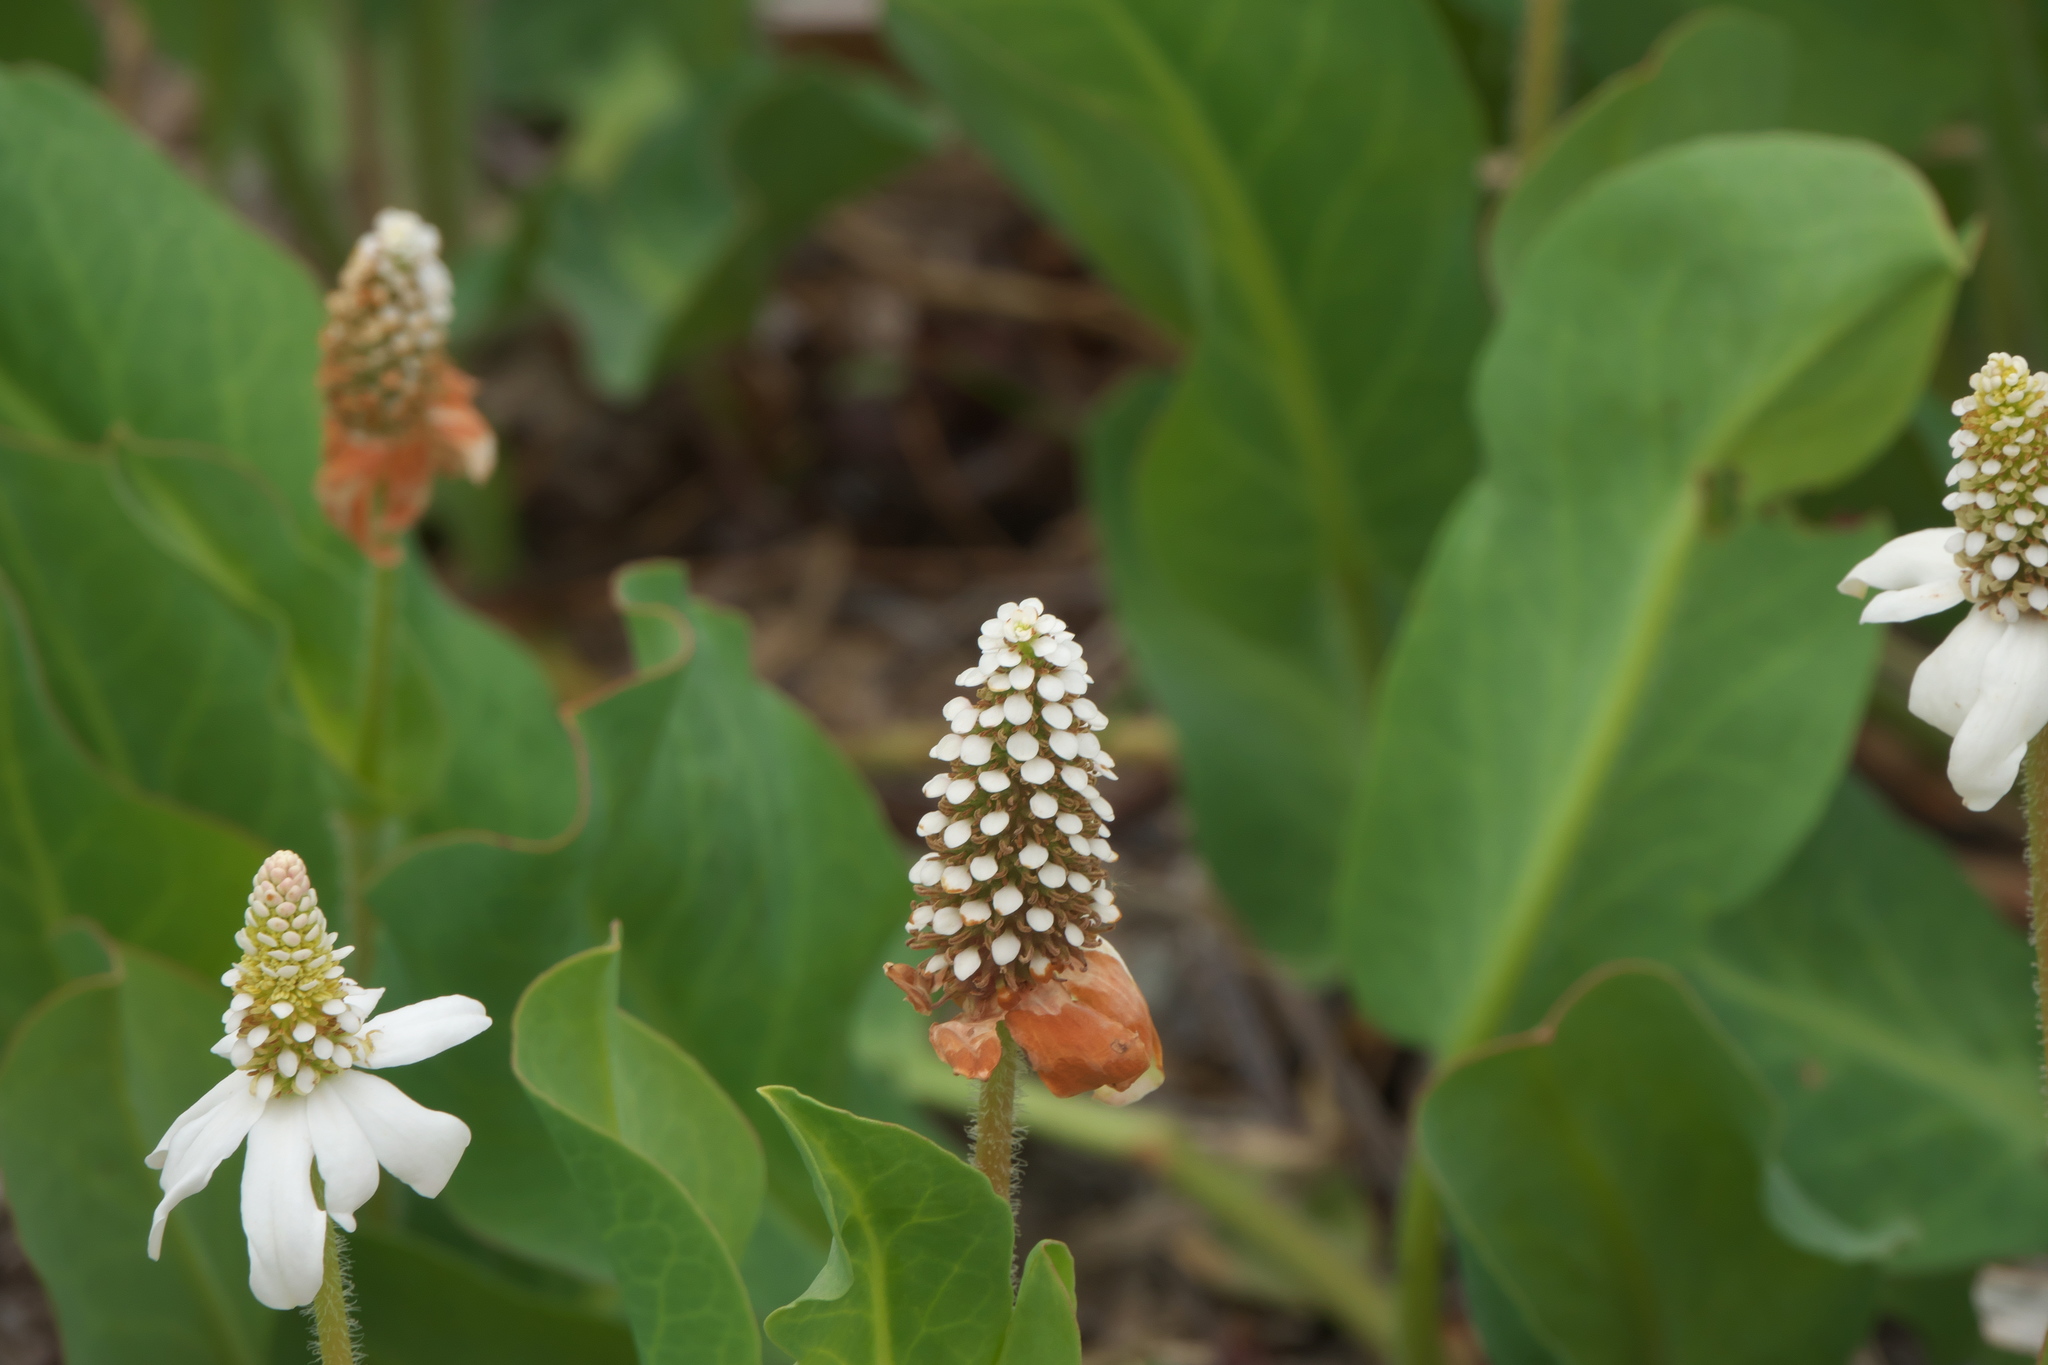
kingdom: Plantae
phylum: Tracheophyta
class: Magnoliopsida
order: Piperales
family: Saururaceae
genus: Anemopsis
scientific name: Anemopsis californica
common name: Apache-beads
